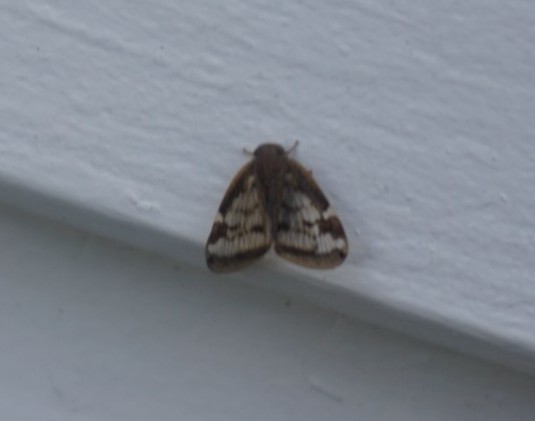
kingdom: Animalia
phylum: Arthropoda
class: Insecta
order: Hemiptera
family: Ricaniidae
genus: Scolypopa
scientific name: Scolypopa australis
